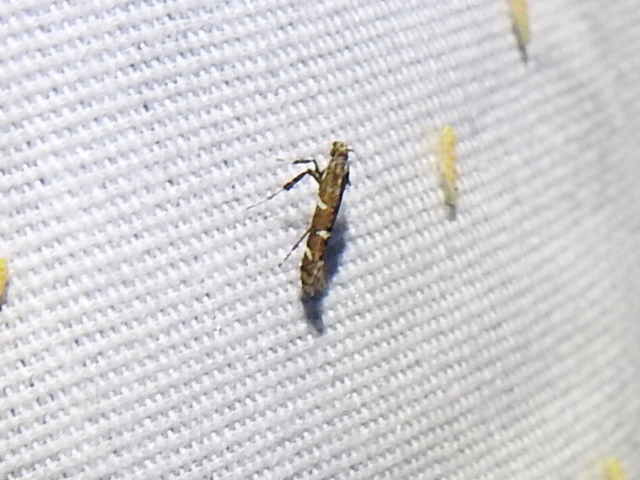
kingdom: Animalia
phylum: Arthropoda
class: Insecta
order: Lepidoptera
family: Gracillariidae
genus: Caloptilia
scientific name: Caloptilia triadicae
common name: Tallow leaf roller
